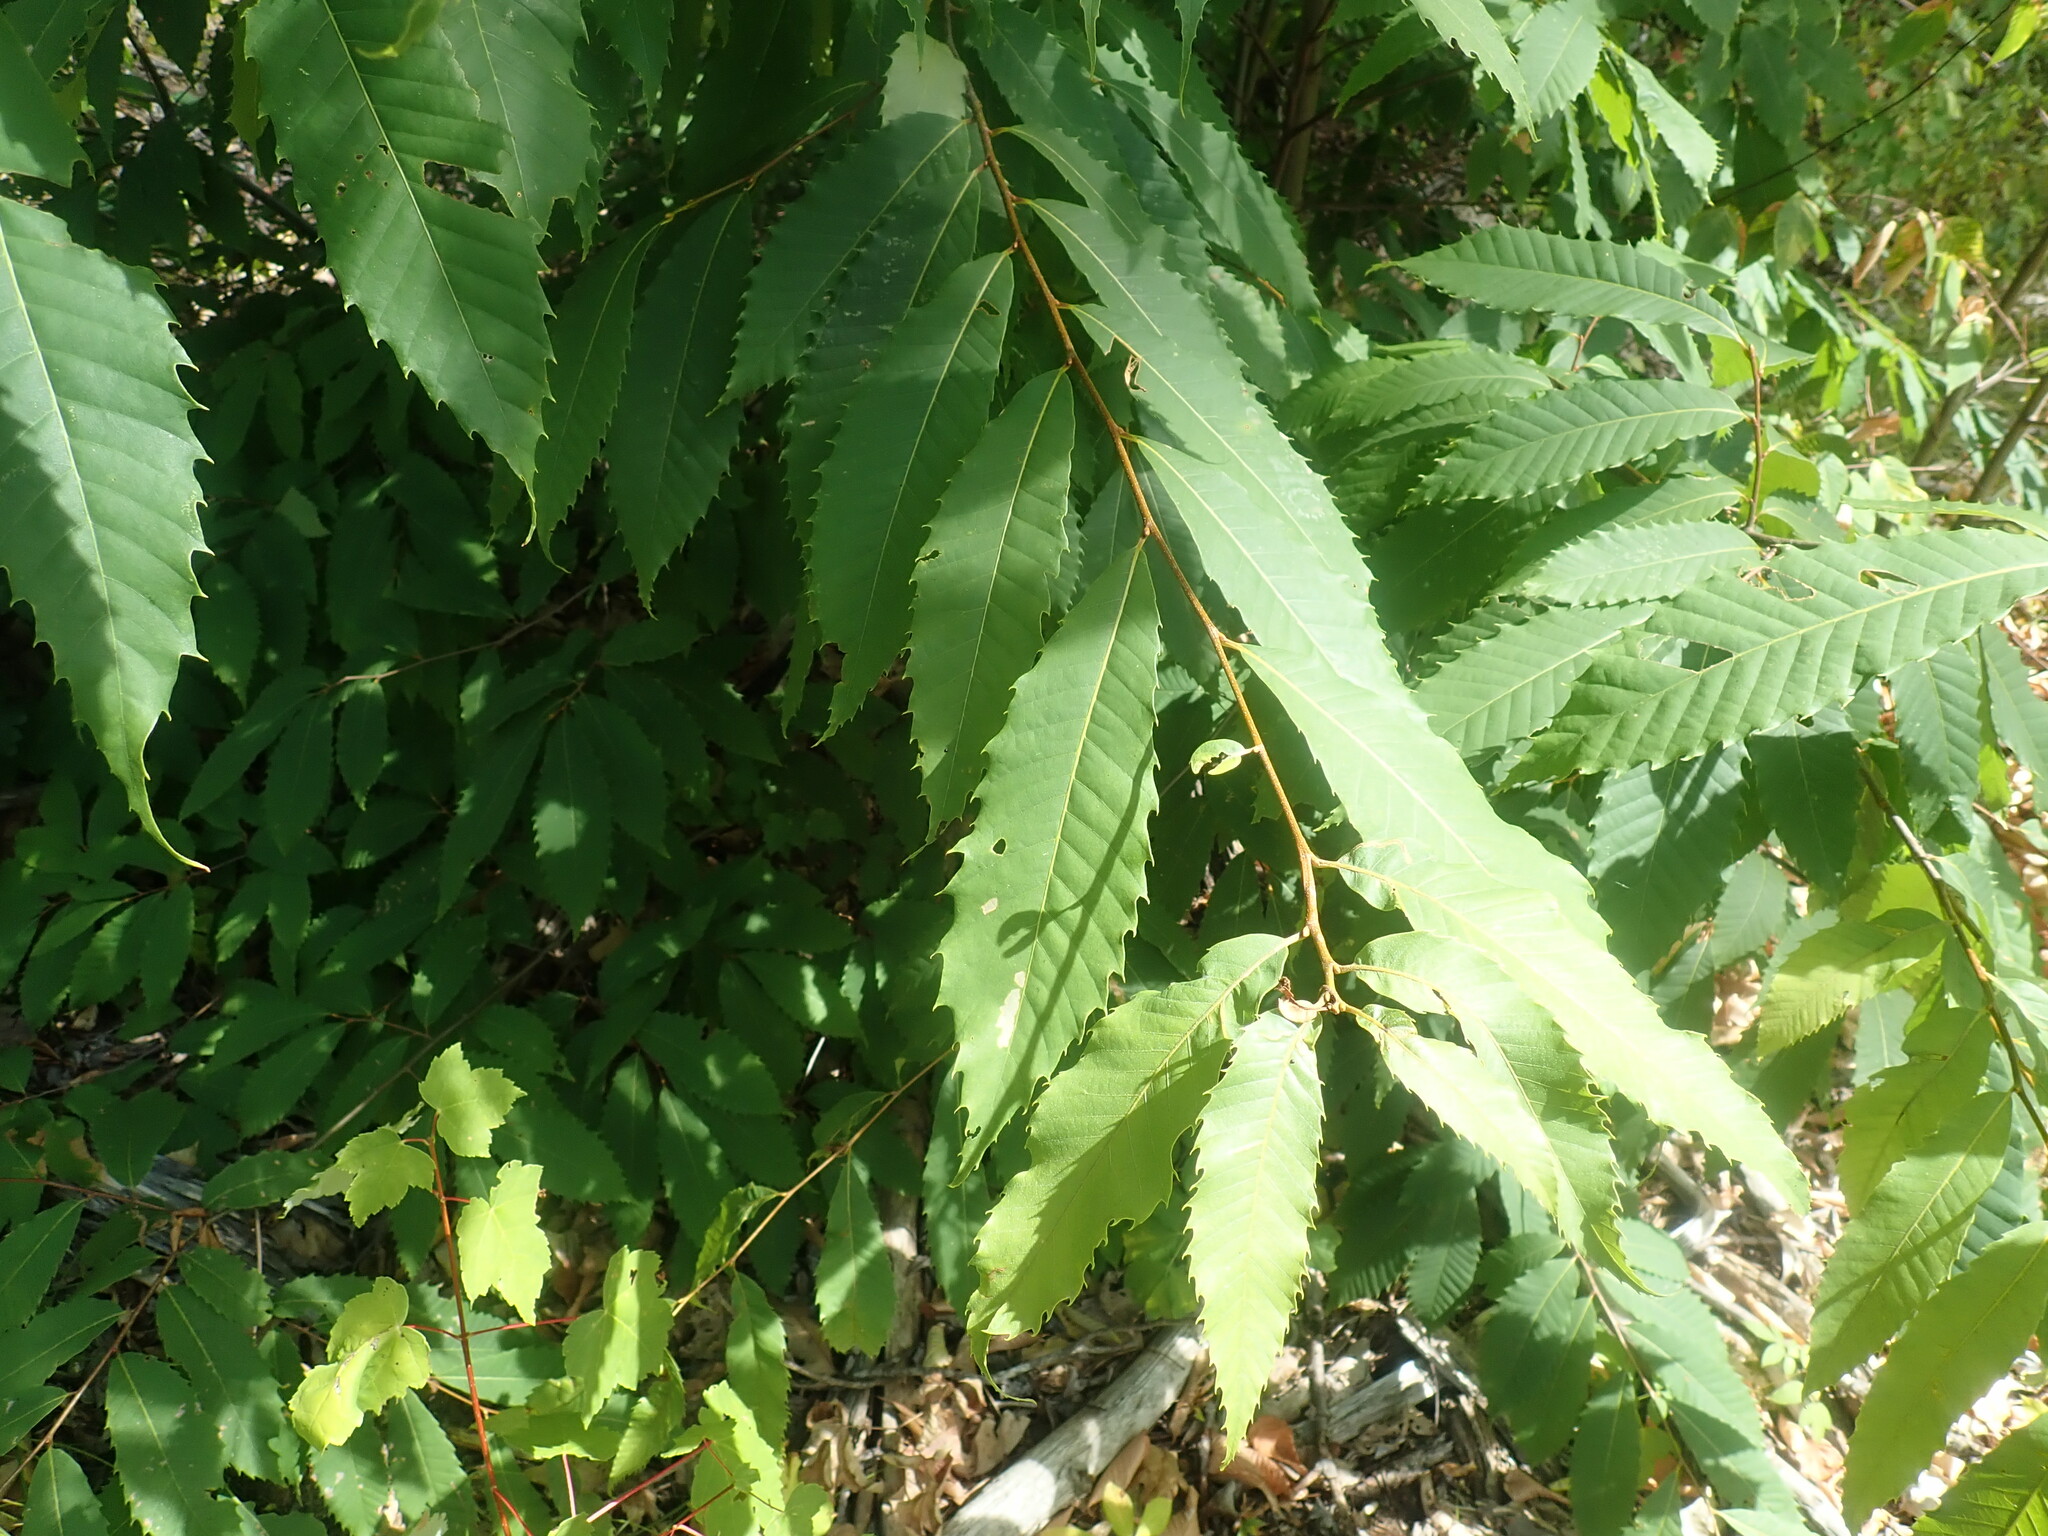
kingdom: Plantae
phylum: Tracheophyta
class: Magnoliopsida
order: Fagales
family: Fagaceae
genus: Castanea
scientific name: Castanea dentata
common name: American chestnut
